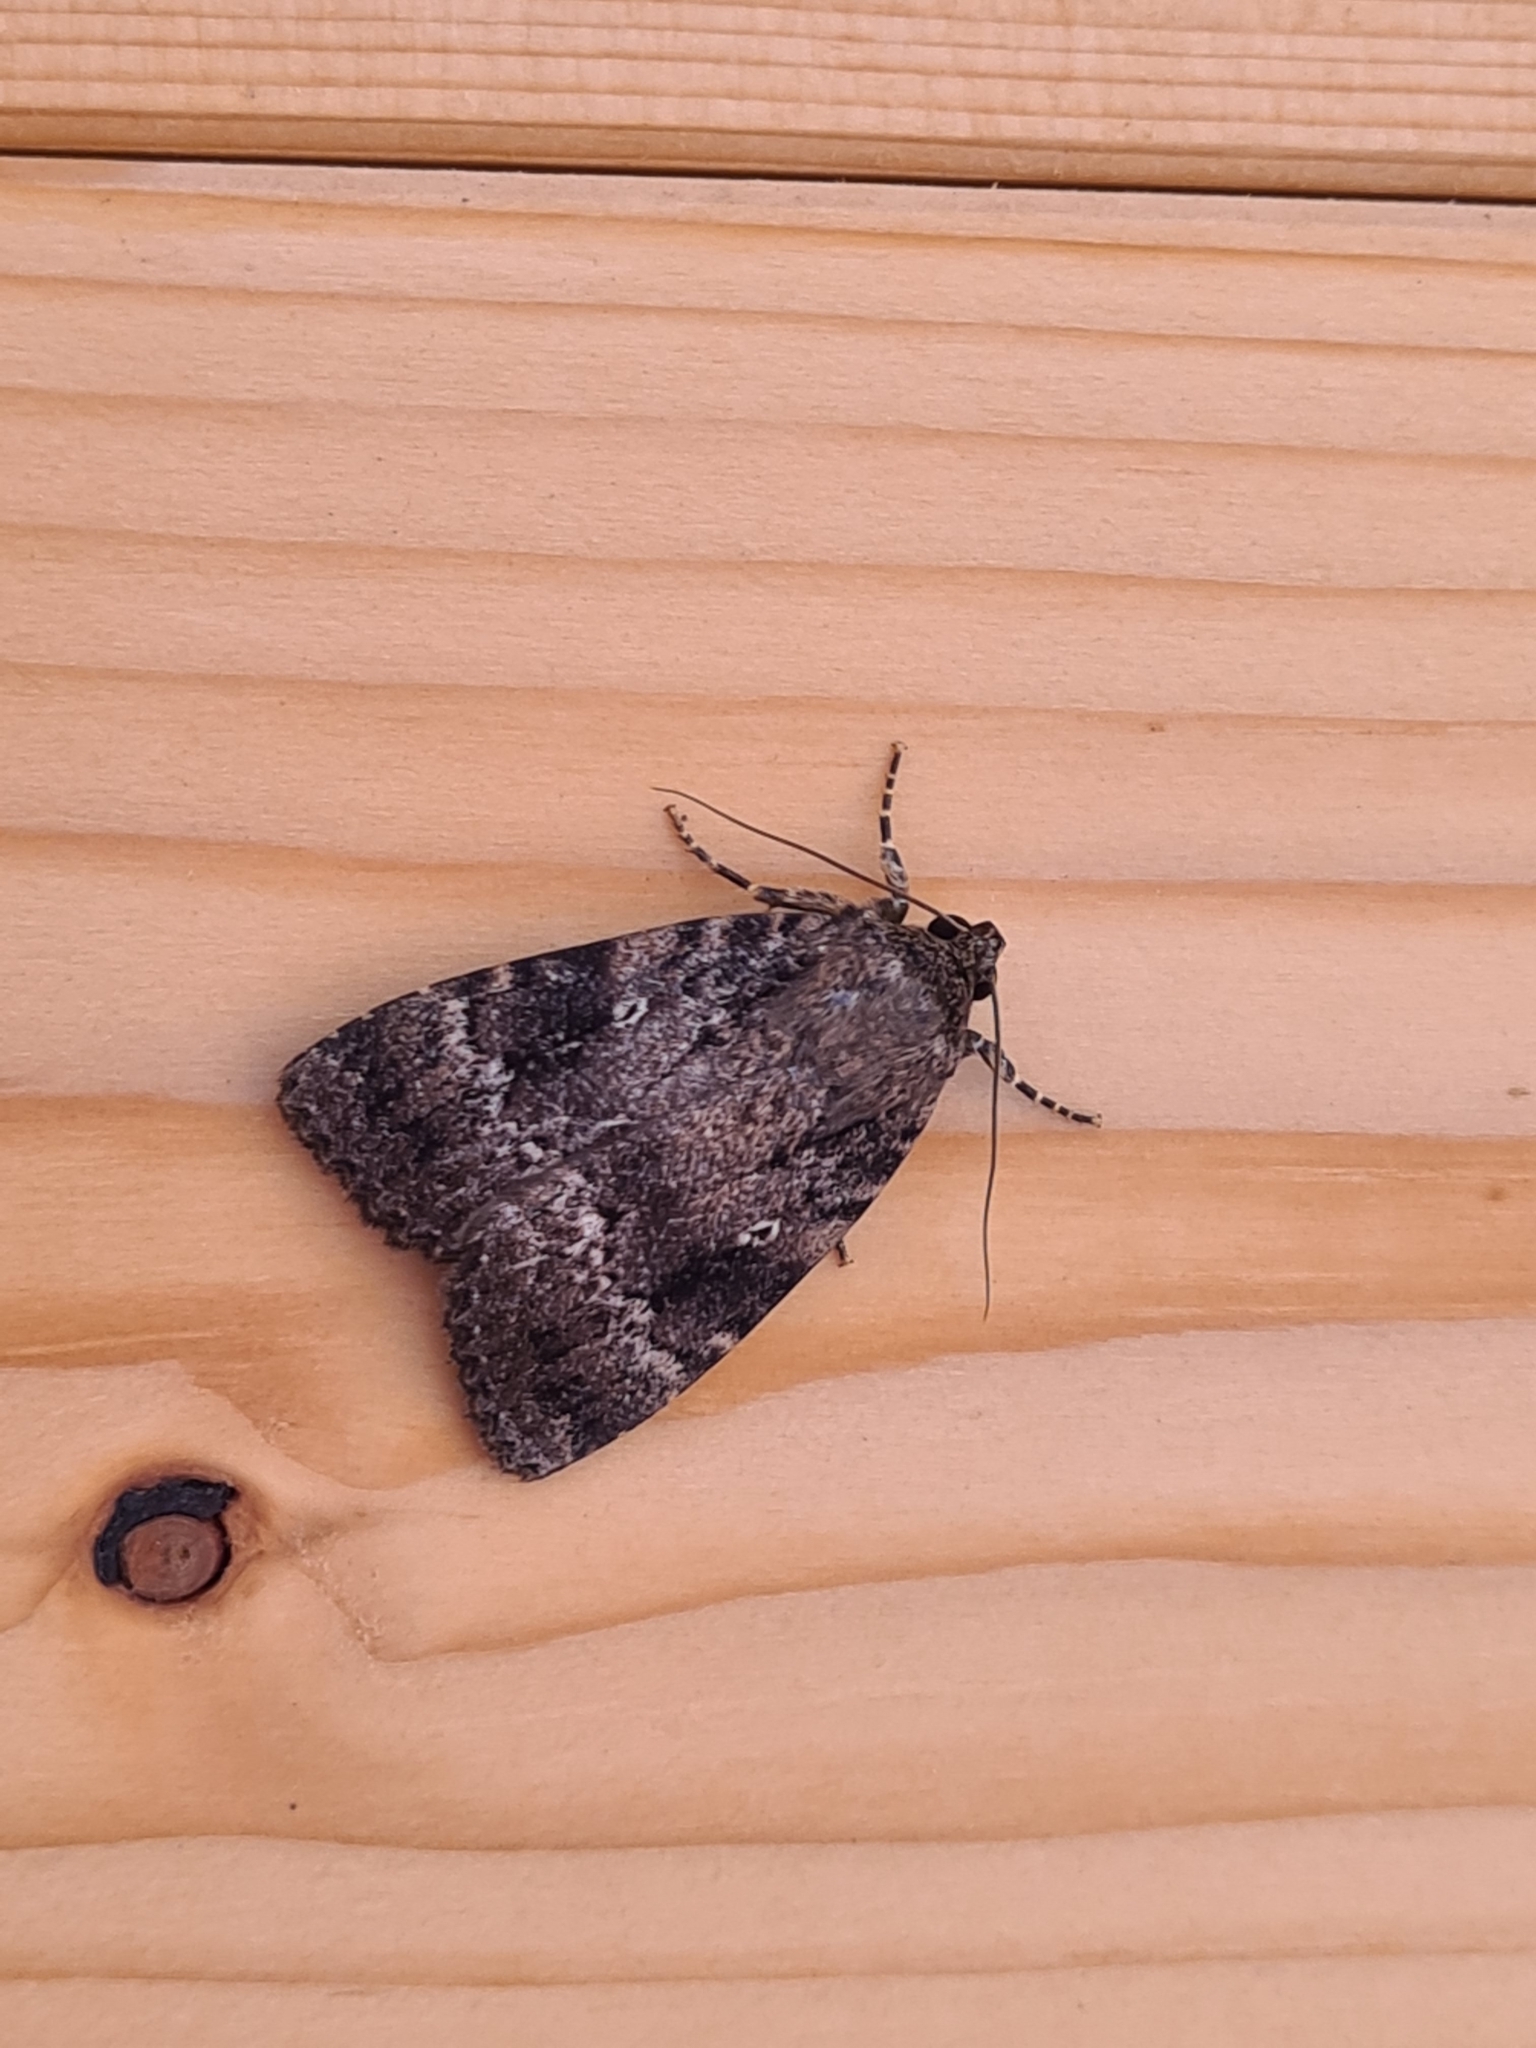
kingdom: Animalia
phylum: Arthropoda
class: Insecta
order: Lepidoptera
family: Noctuidae
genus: Amphipyra
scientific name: Amphipyra pyramidea
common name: Copper underwing
